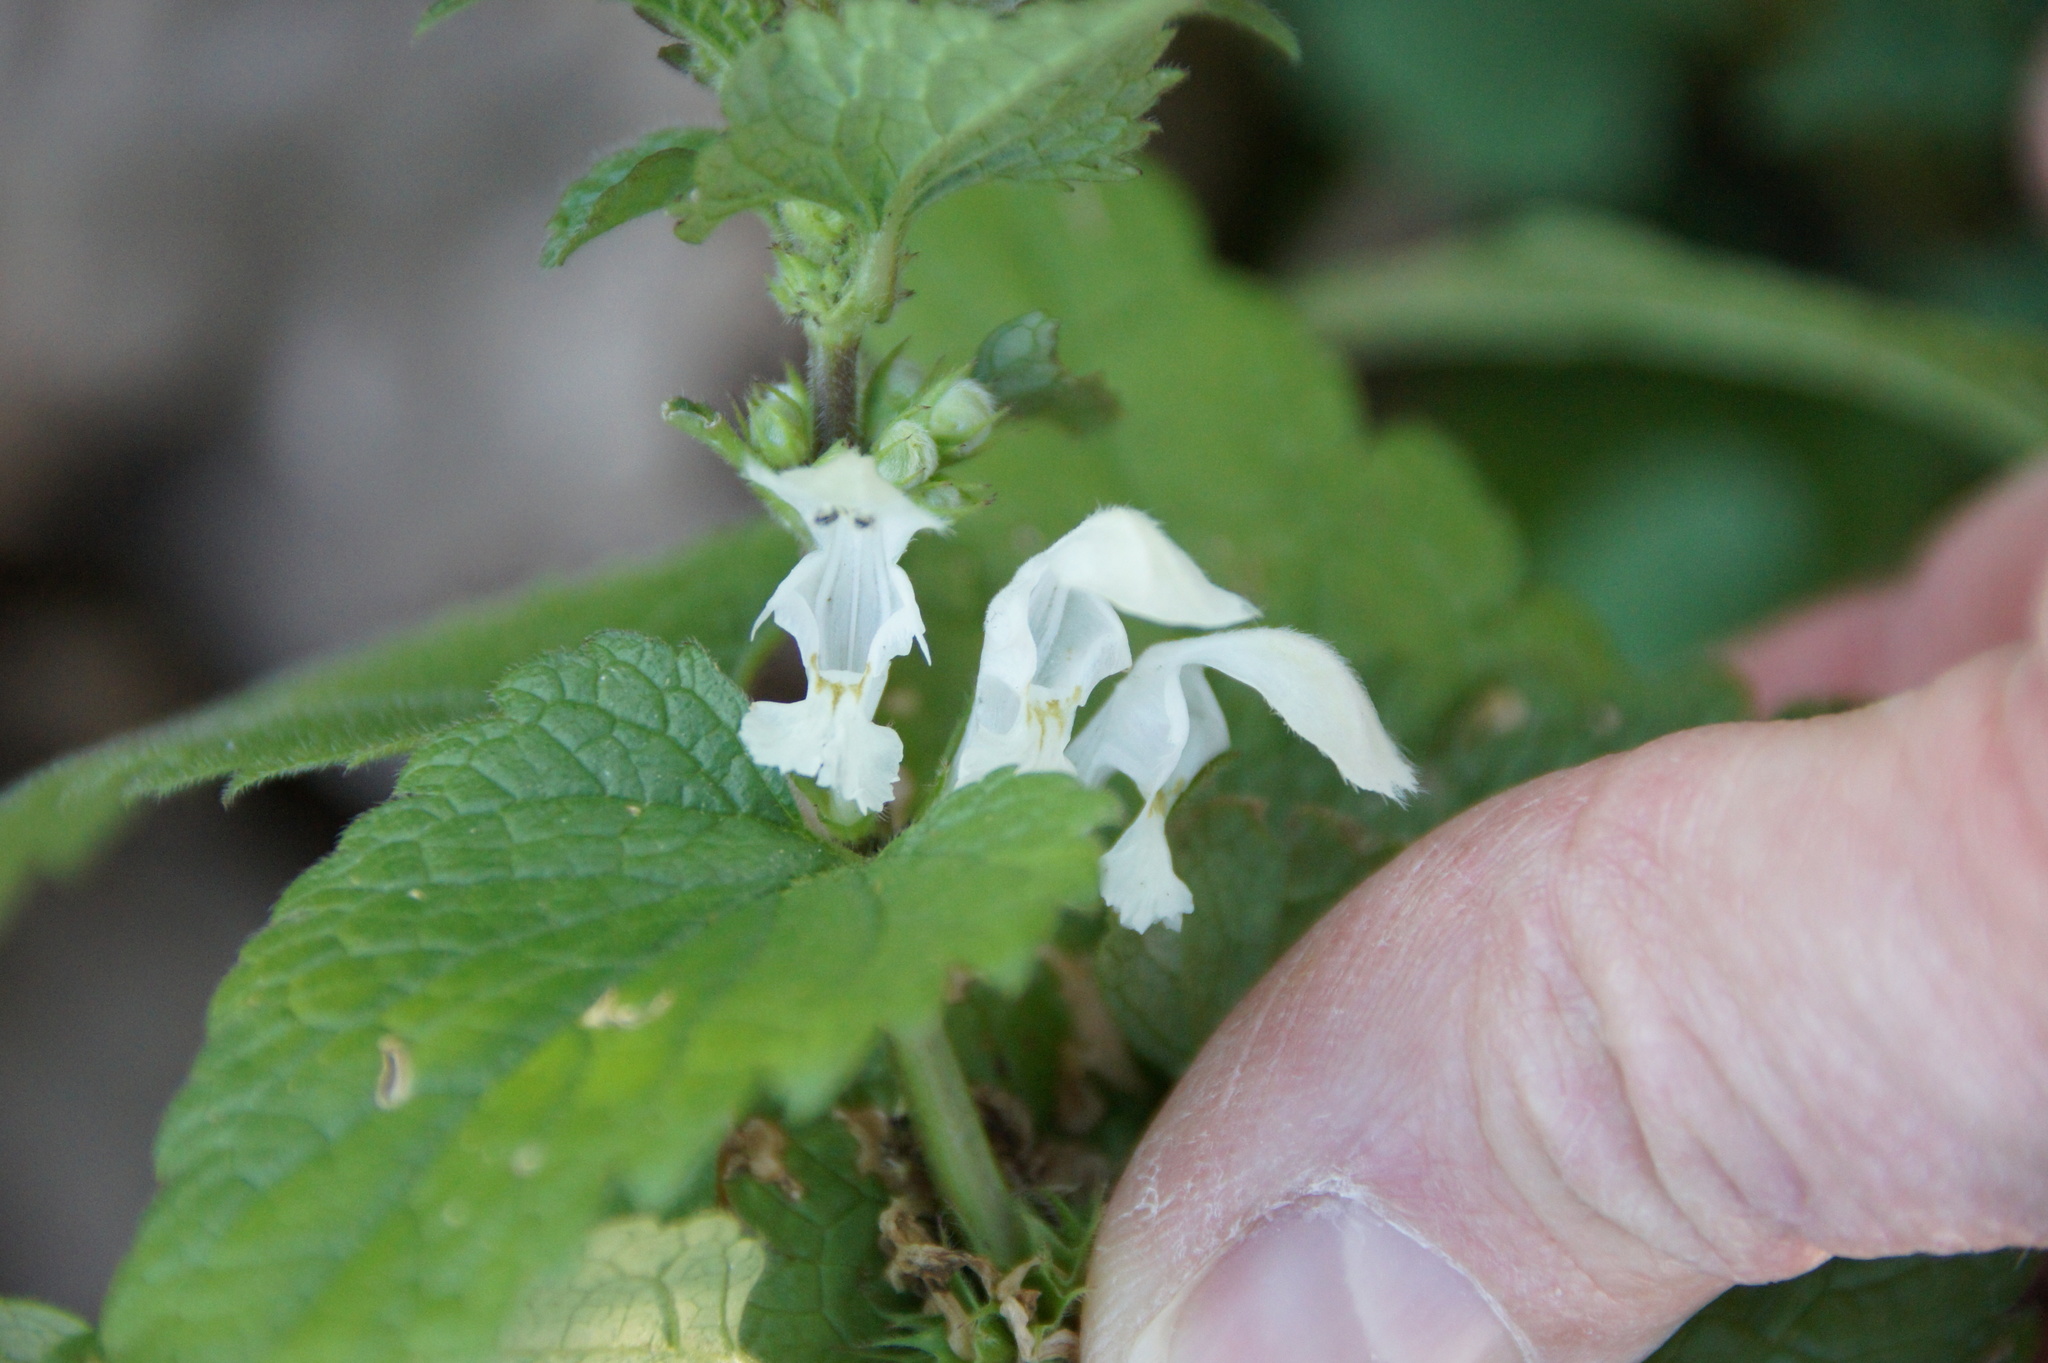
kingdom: Plantae
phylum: Tracheophyta
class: Magnoliopsida
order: Lamiales
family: Lamiaceae
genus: Lamium
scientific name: Lamium album
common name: White dead-nettle
